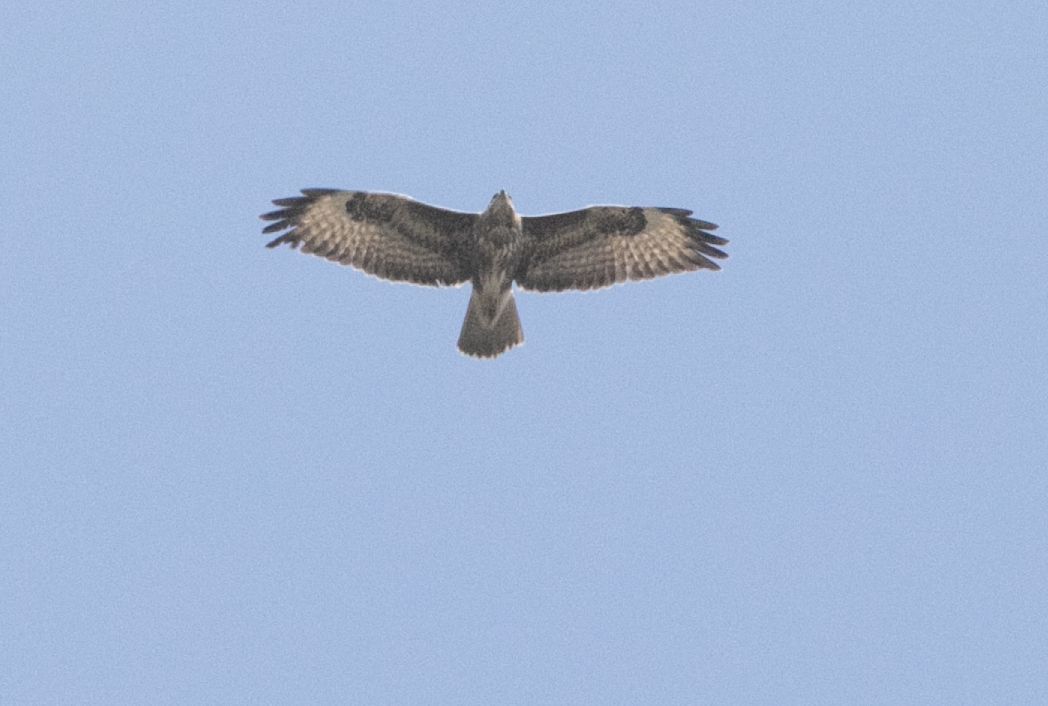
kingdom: Animalia
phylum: Chordata
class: Aves
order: Accipitriformes
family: Accipitridae
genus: Buteo
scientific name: Buteo buteo
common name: Common buzzard
